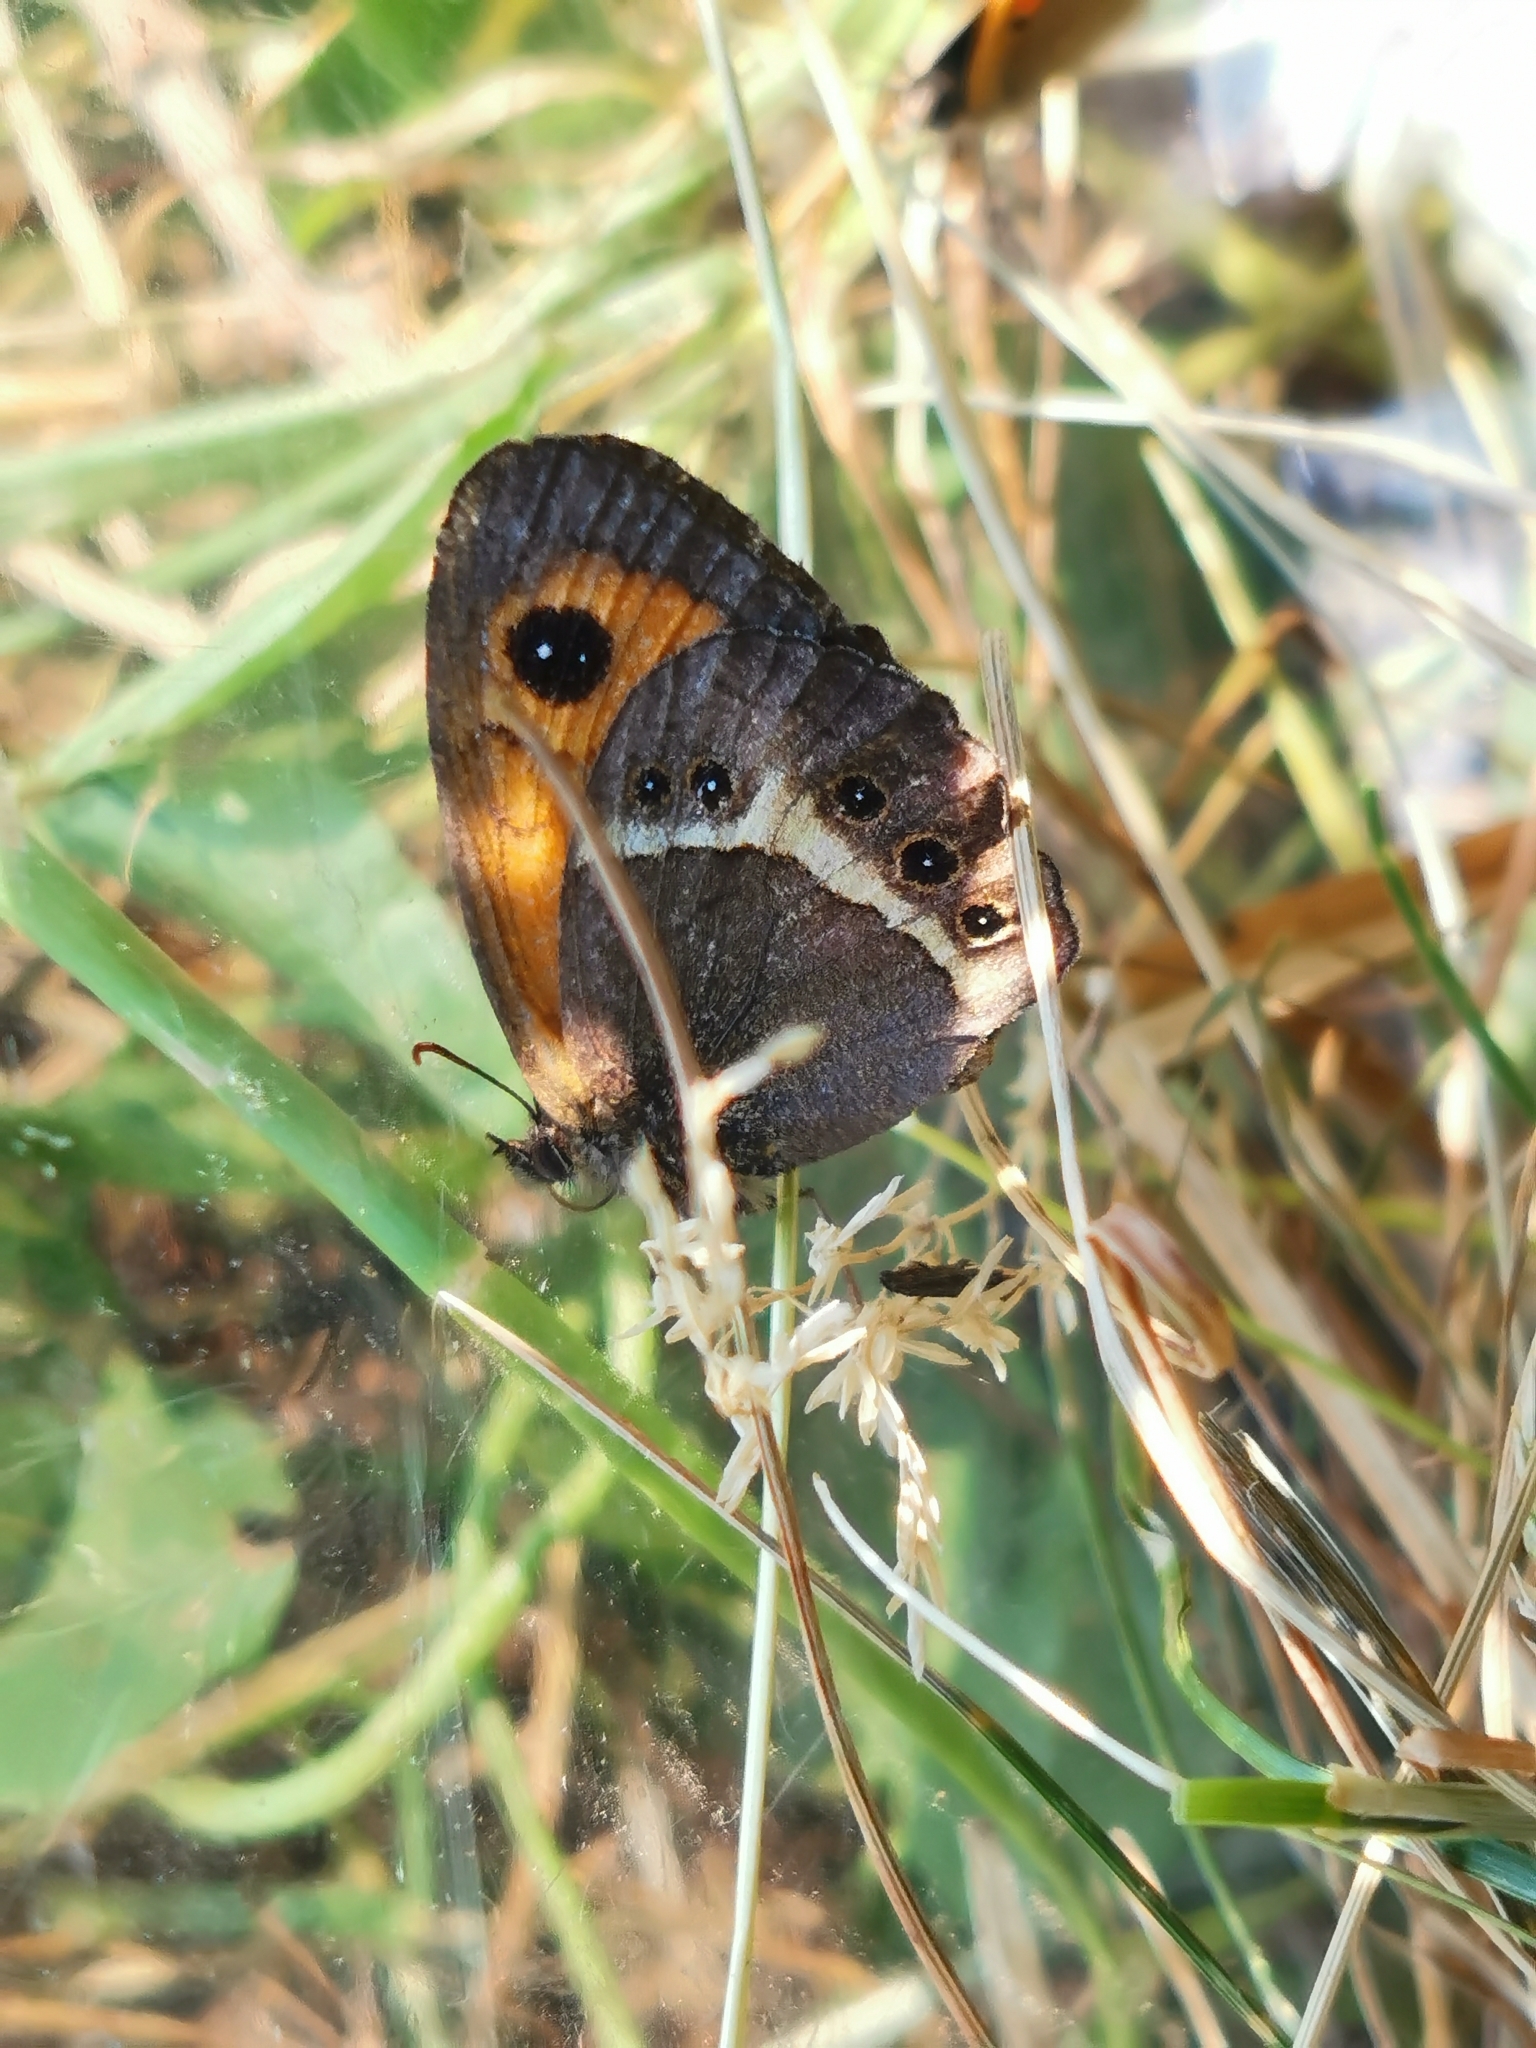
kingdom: Animalia
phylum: Arthropoda
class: Insecta
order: Lepidoptera
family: Nymphalidae
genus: Pyronia
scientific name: Pyronia bathseba
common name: Spanish gatekeeper
